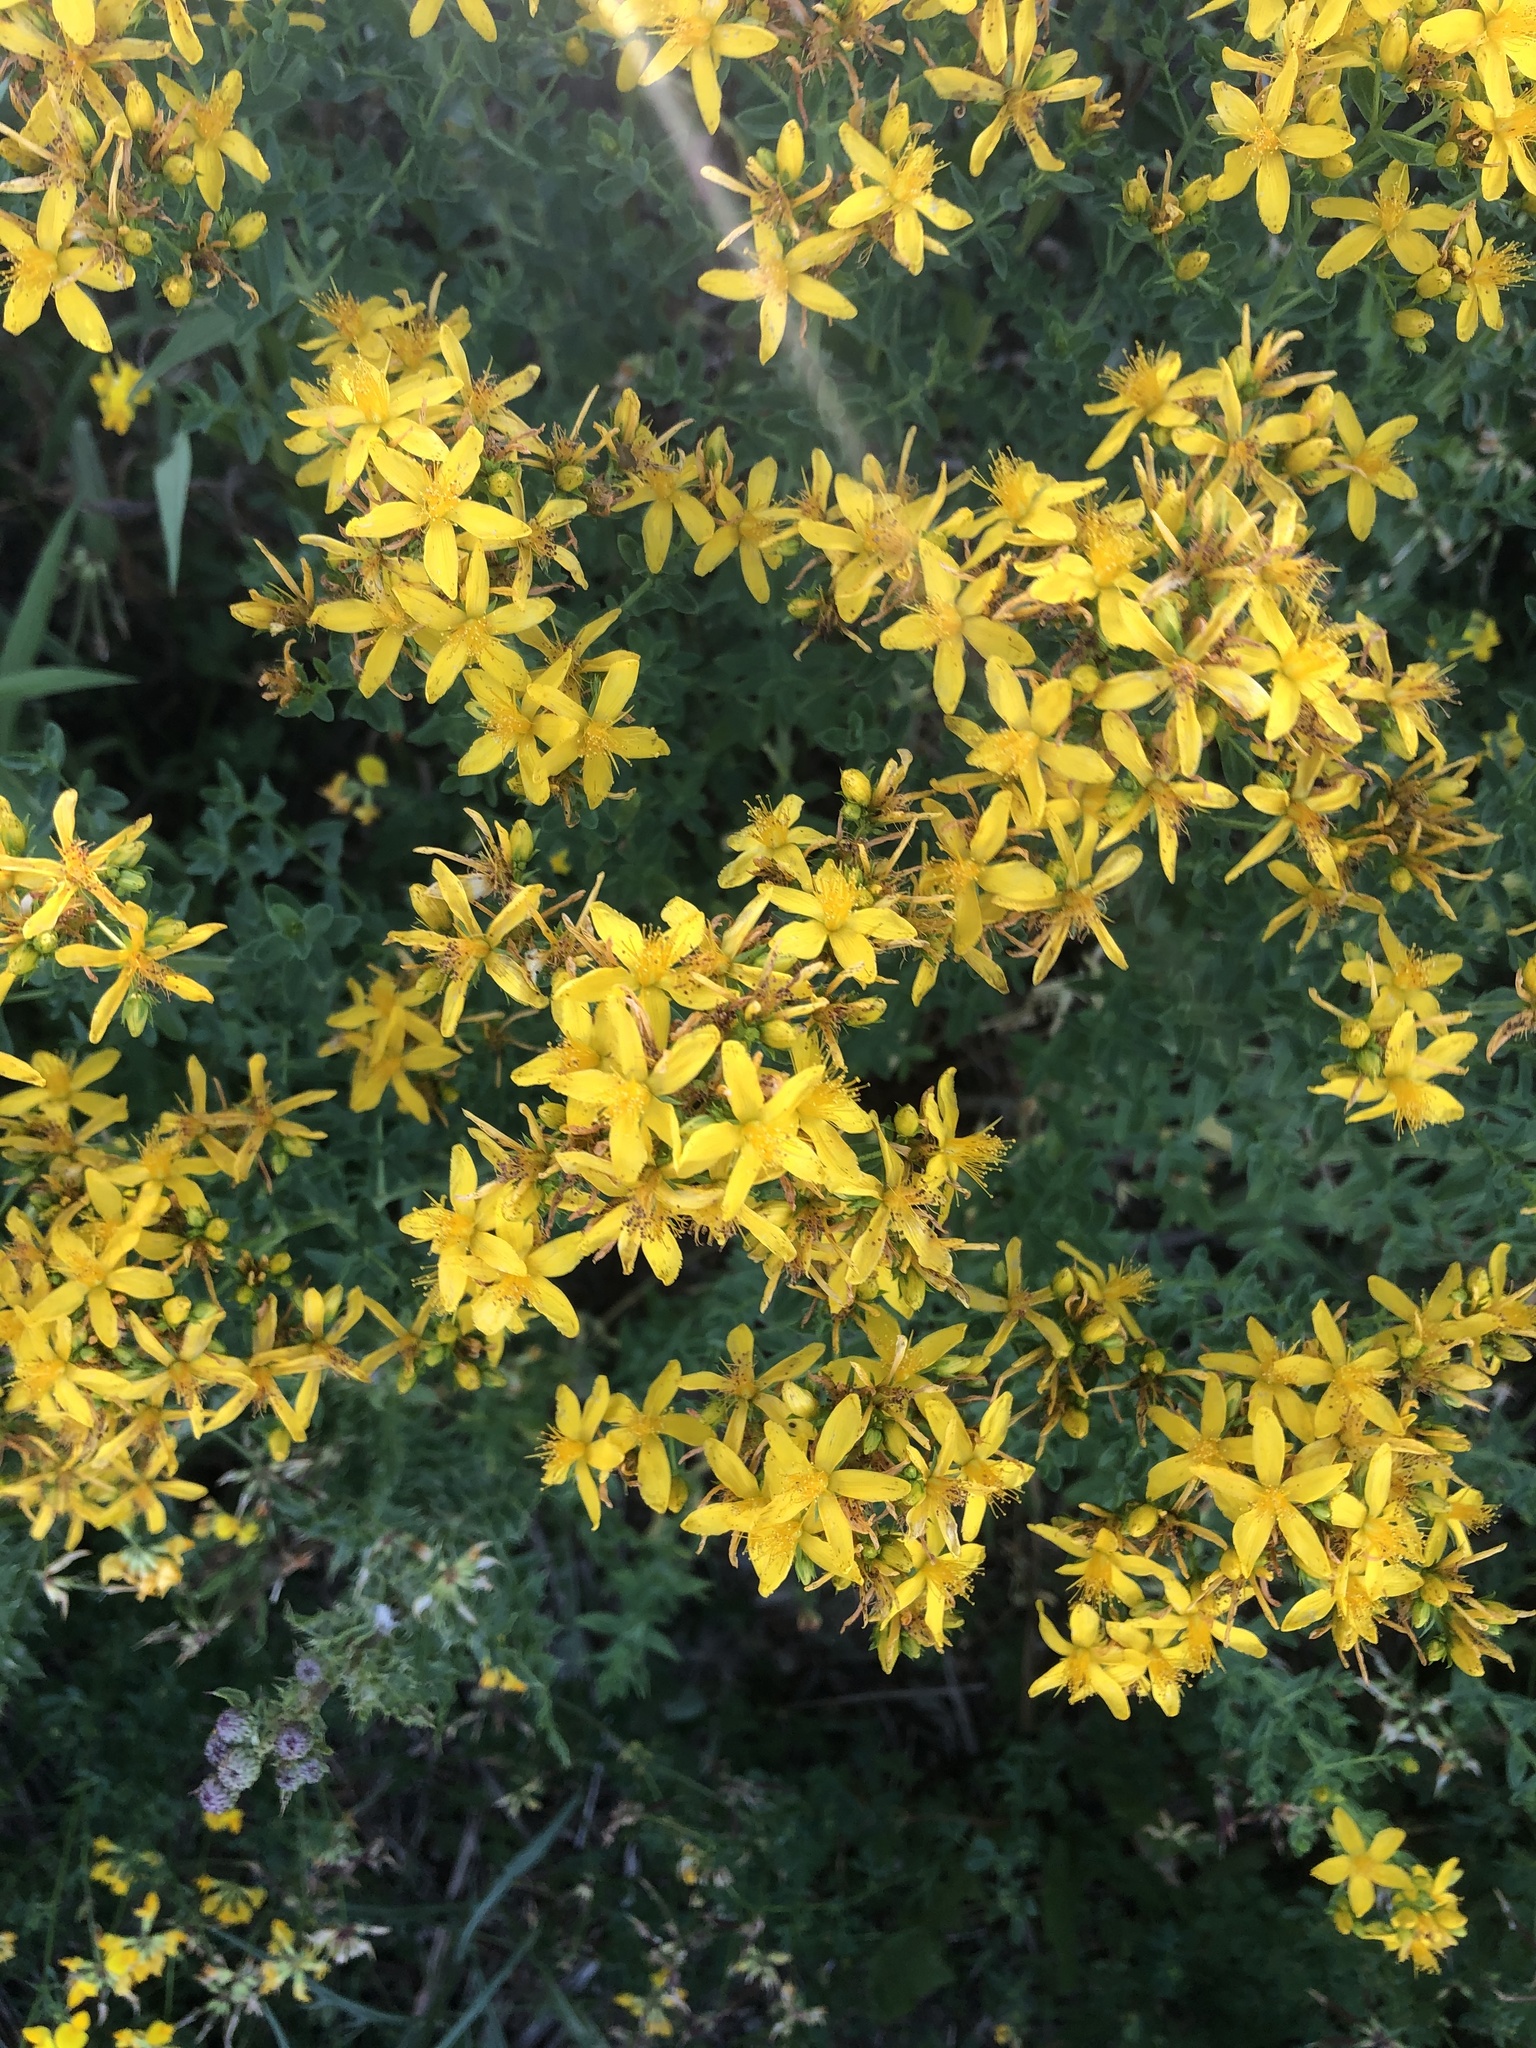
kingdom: Plantae
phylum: Tracheophyta
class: Magnoliopsida
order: Malpighiales
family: Hypericaceae
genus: Hypericum
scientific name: Hypericum perforatum
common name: Common st. johnswort
